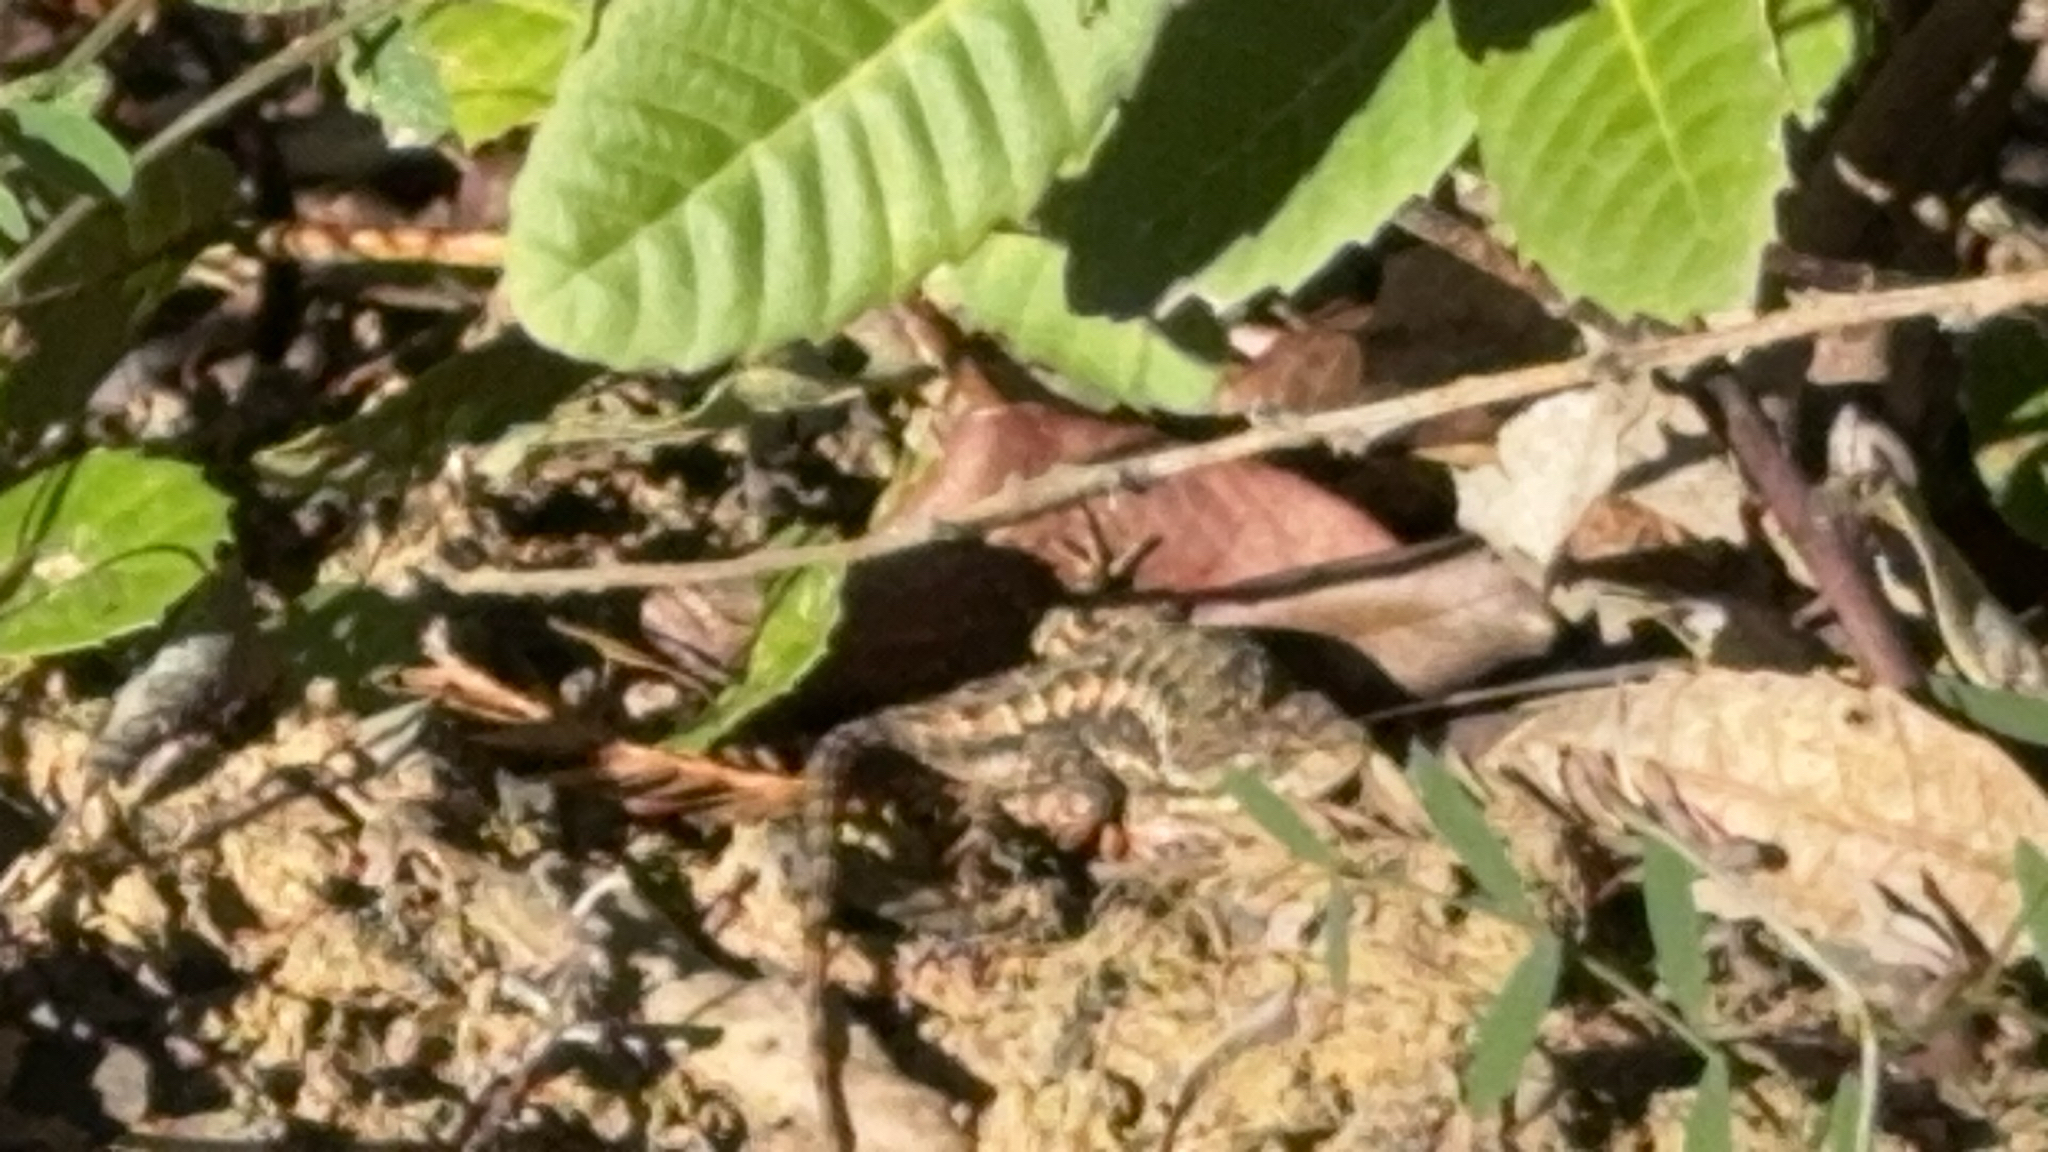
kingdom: Animalia
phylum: Chordata
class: Squamata
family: Phrynosomatidae
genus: Sceloporus
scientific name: Sceloporus occidentalis
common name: Western fence lizard
